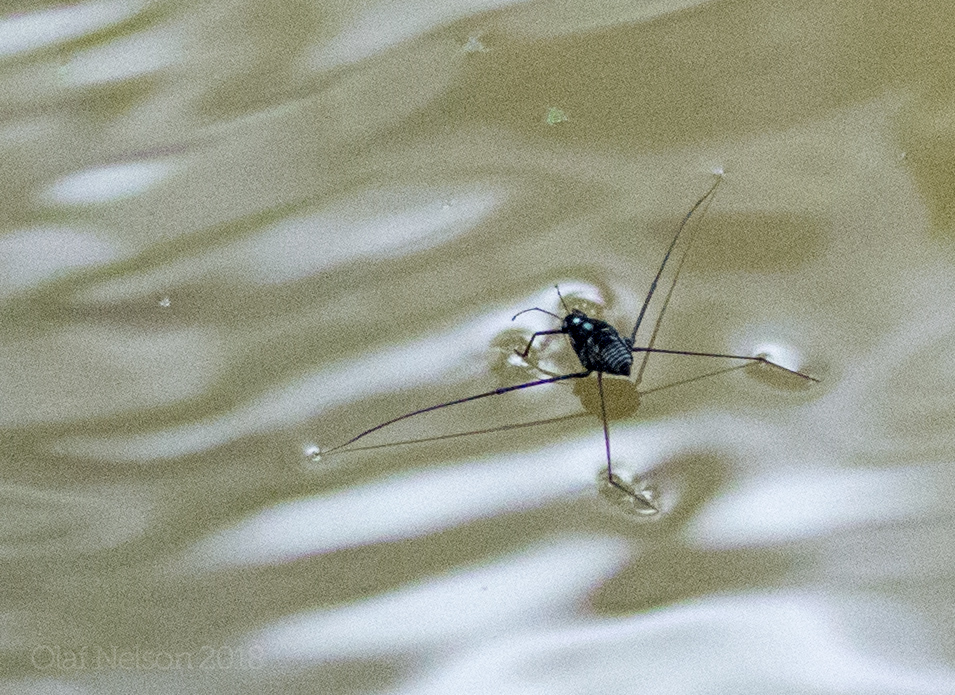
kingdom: Animalia
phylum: Arthropoda
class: Insecta
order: Hemiptera
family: Gerridae
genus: Metrobates
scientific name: Metrobates hesperius
